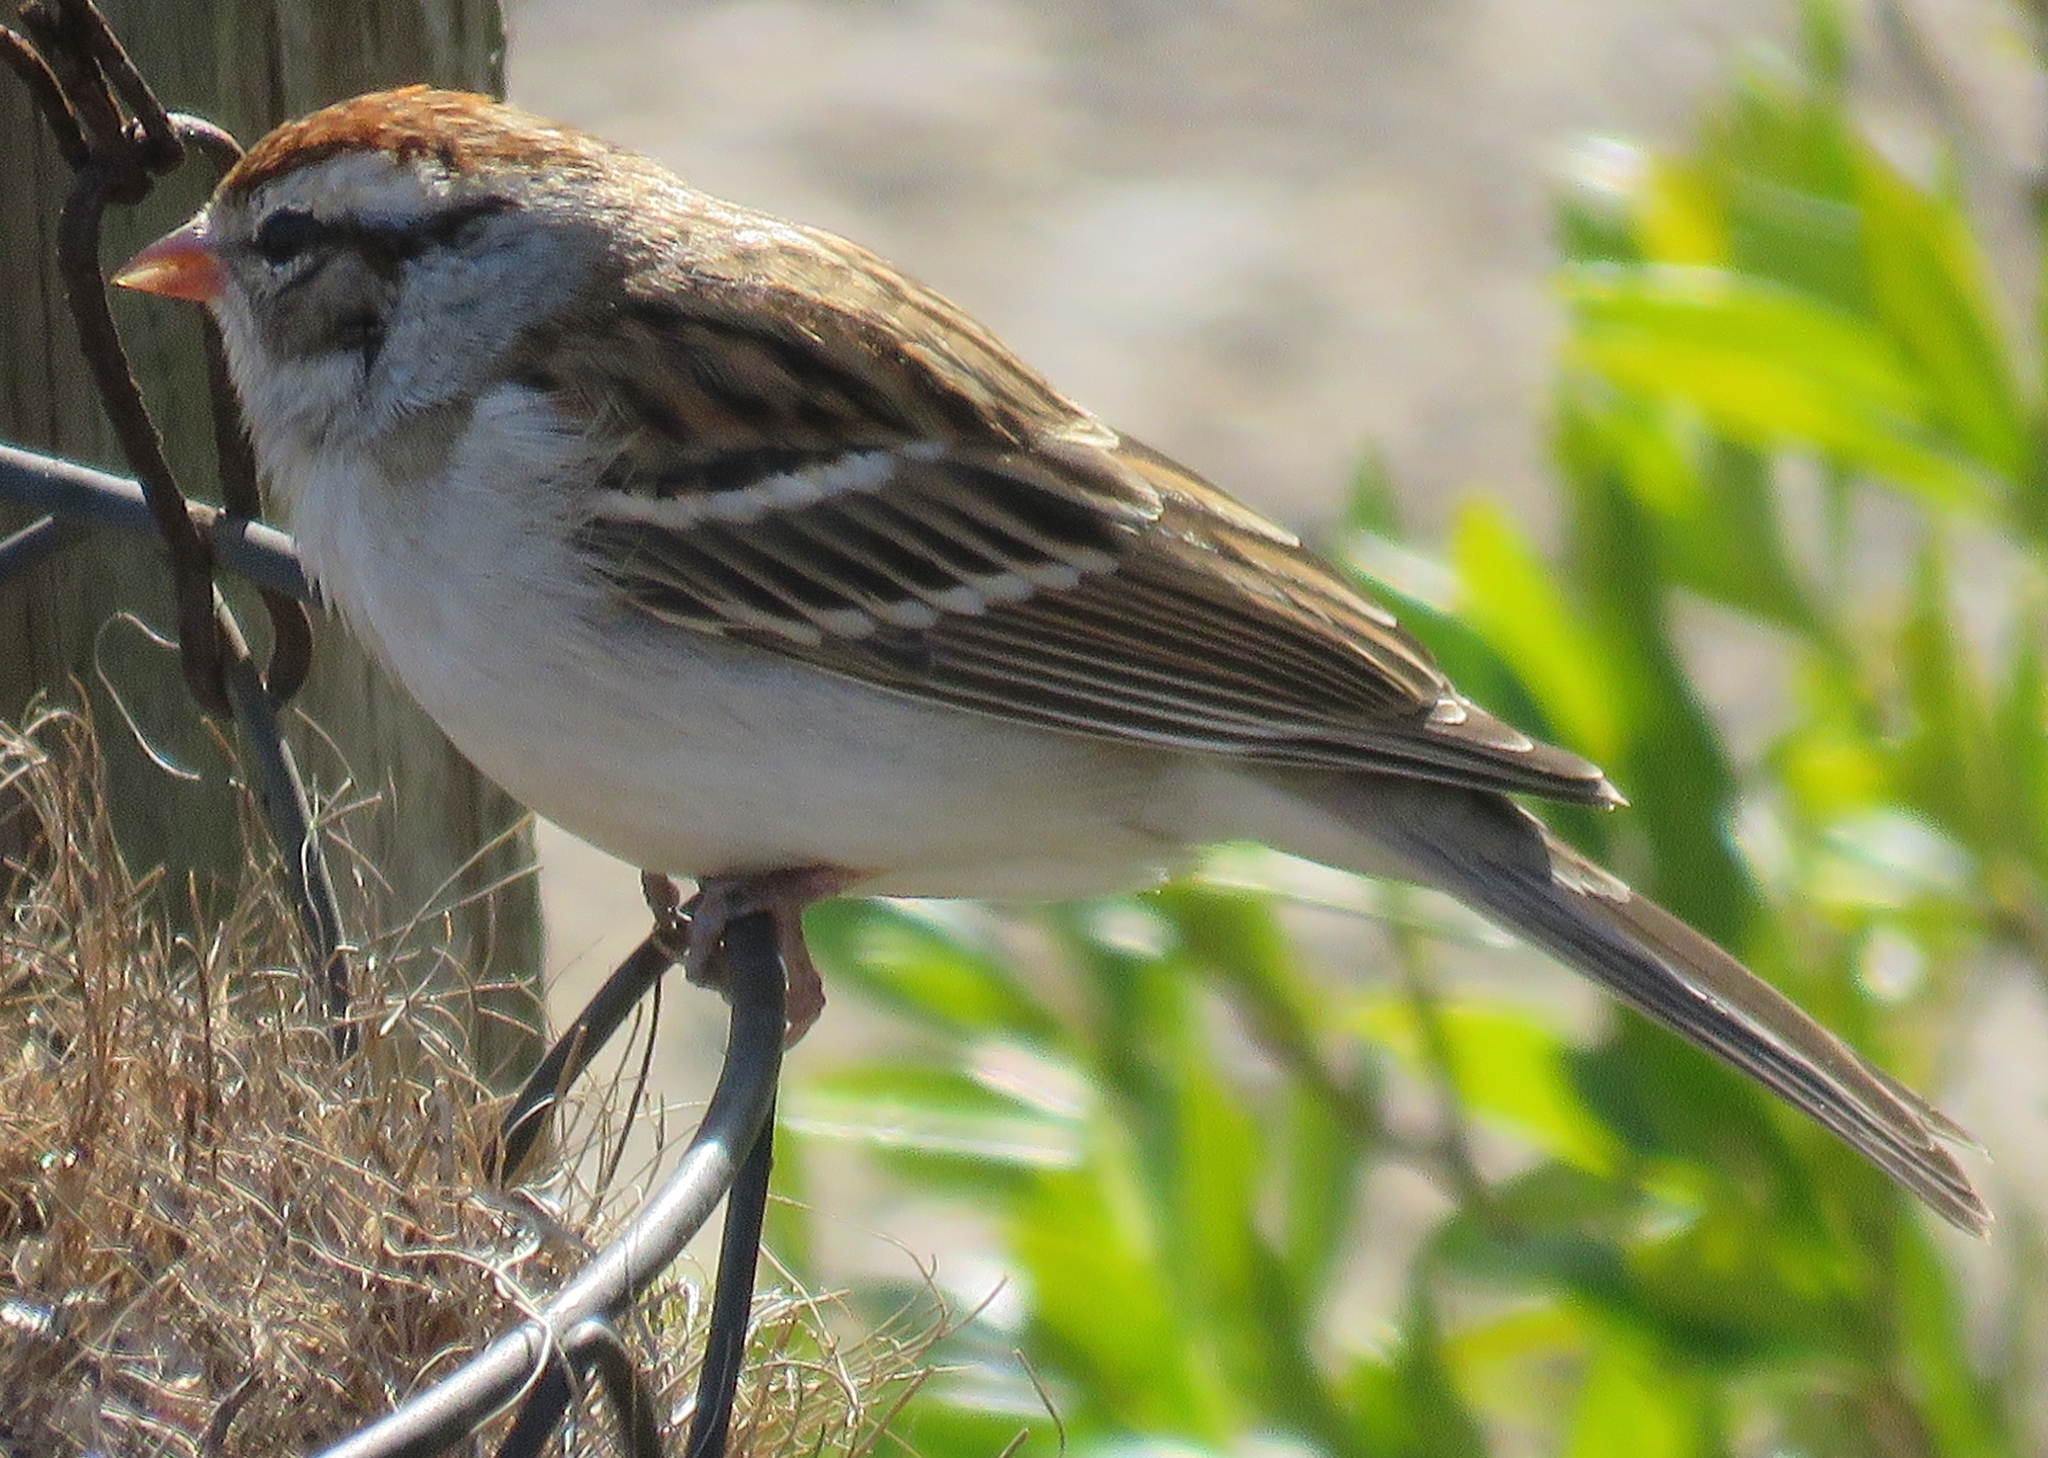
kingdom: Animalia
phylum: Chordata
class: Aves
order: Passeriformes
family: Passerellidae
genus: Spizella
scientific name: Spizella passerina
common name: Chipping sparrow
